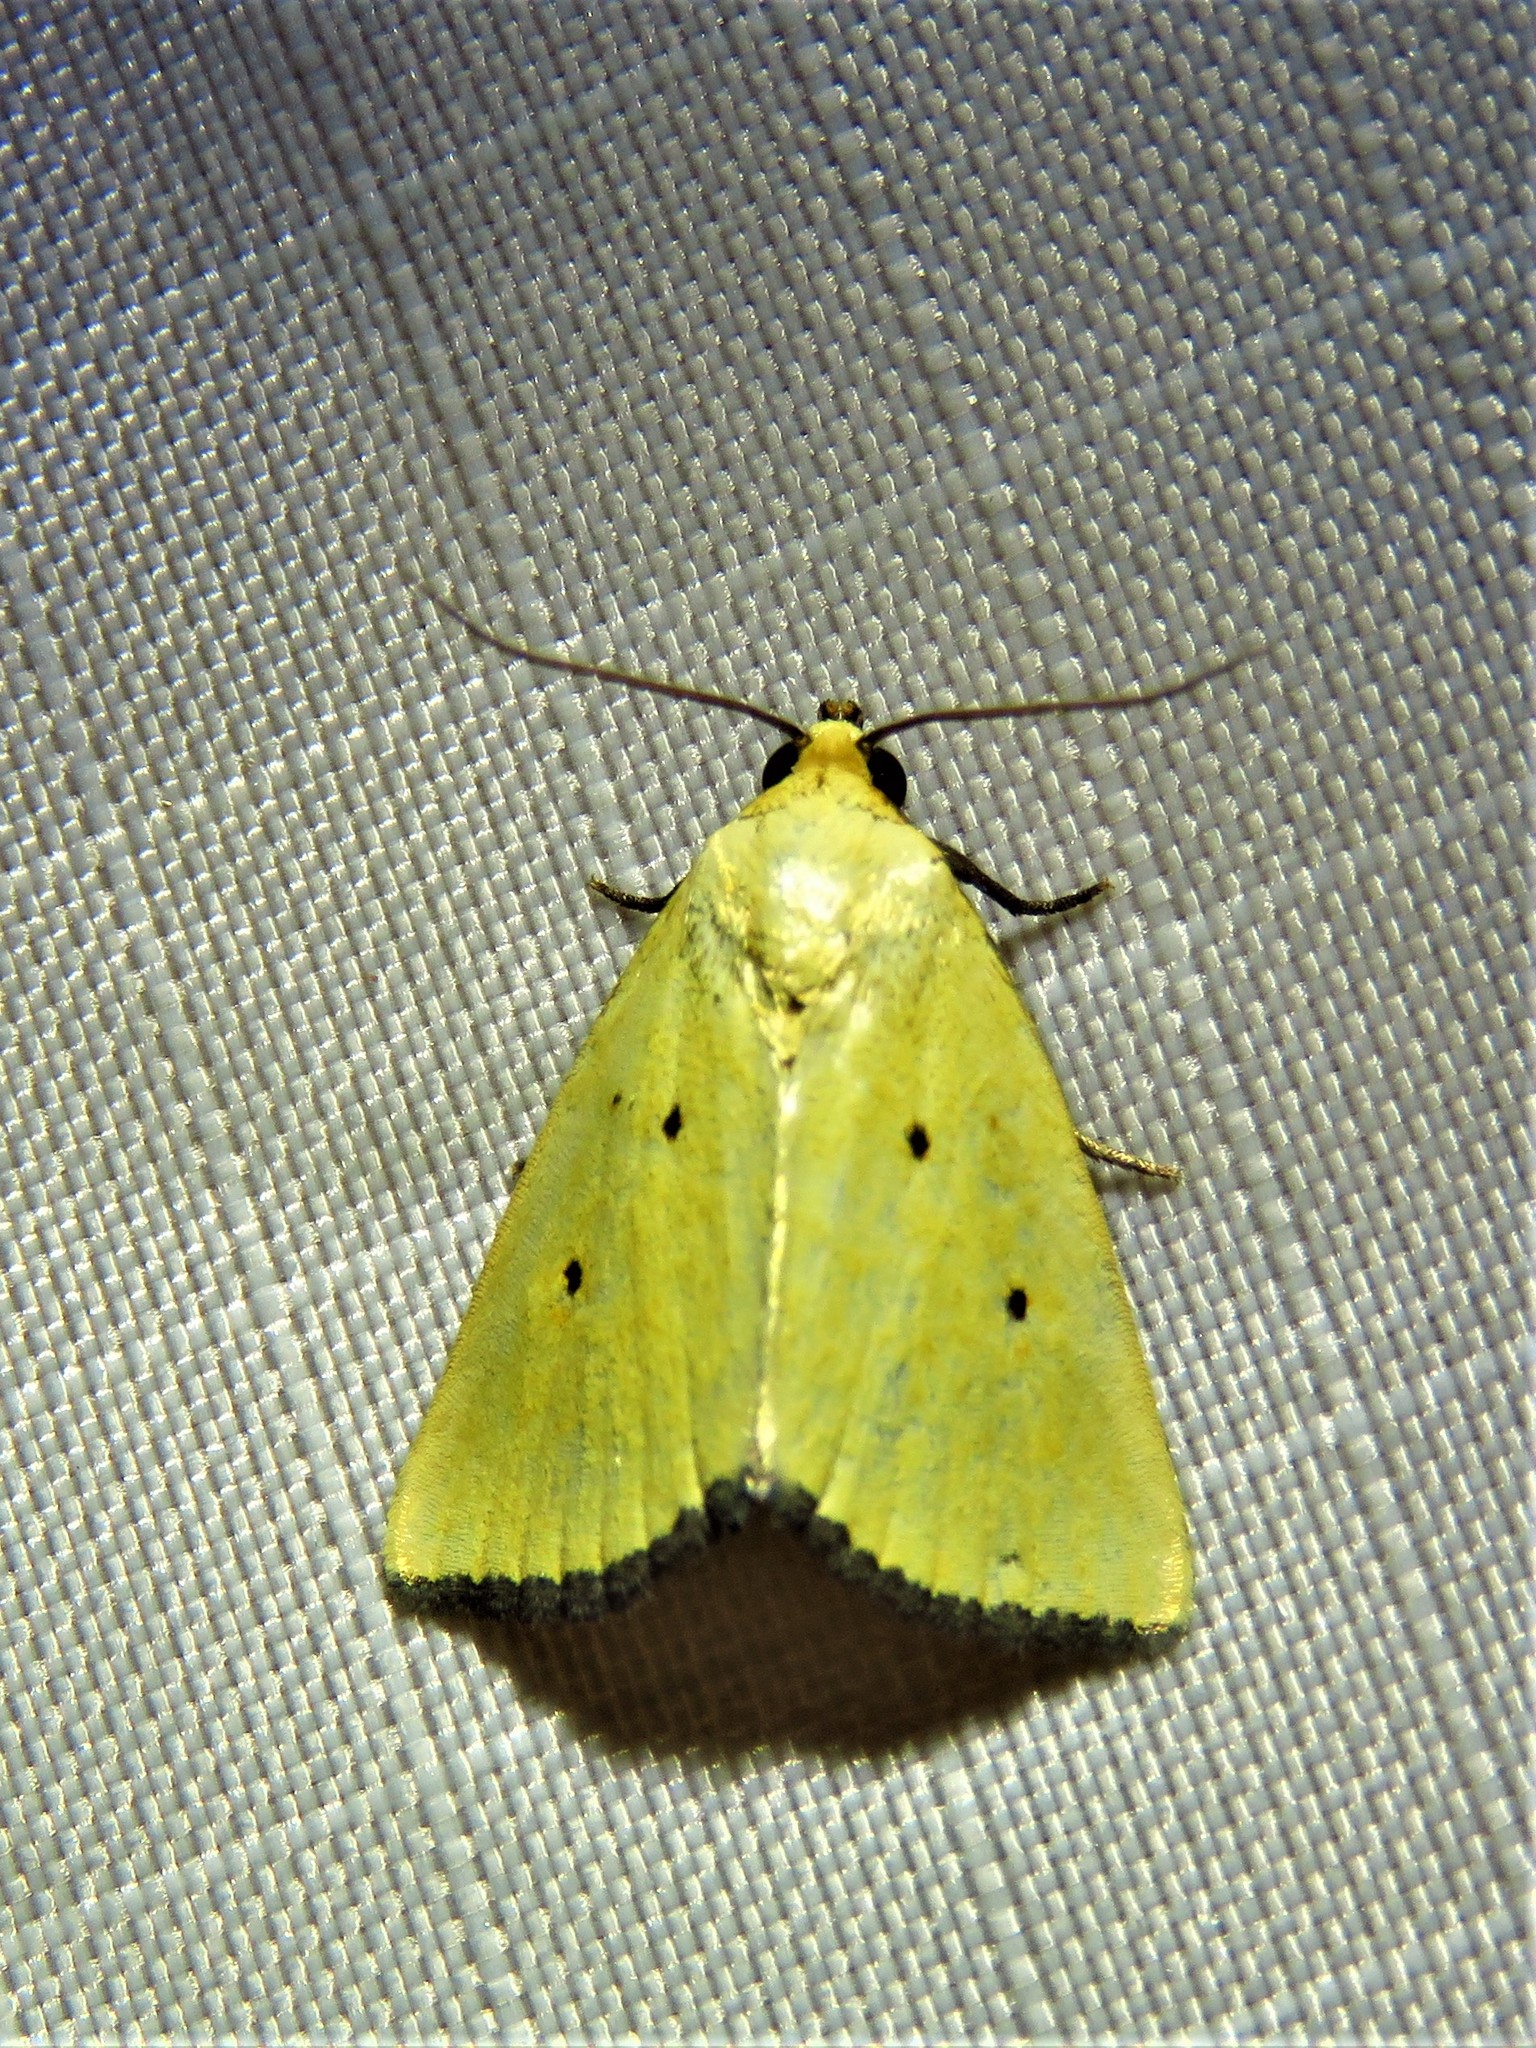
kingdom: Animalia
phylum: Arthropoda
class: Insecta
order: Lepidoptera
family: Noctuidae
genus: Marimatha
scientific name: Marimatha nigrofimbria
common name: Black-bordered lemon moth
